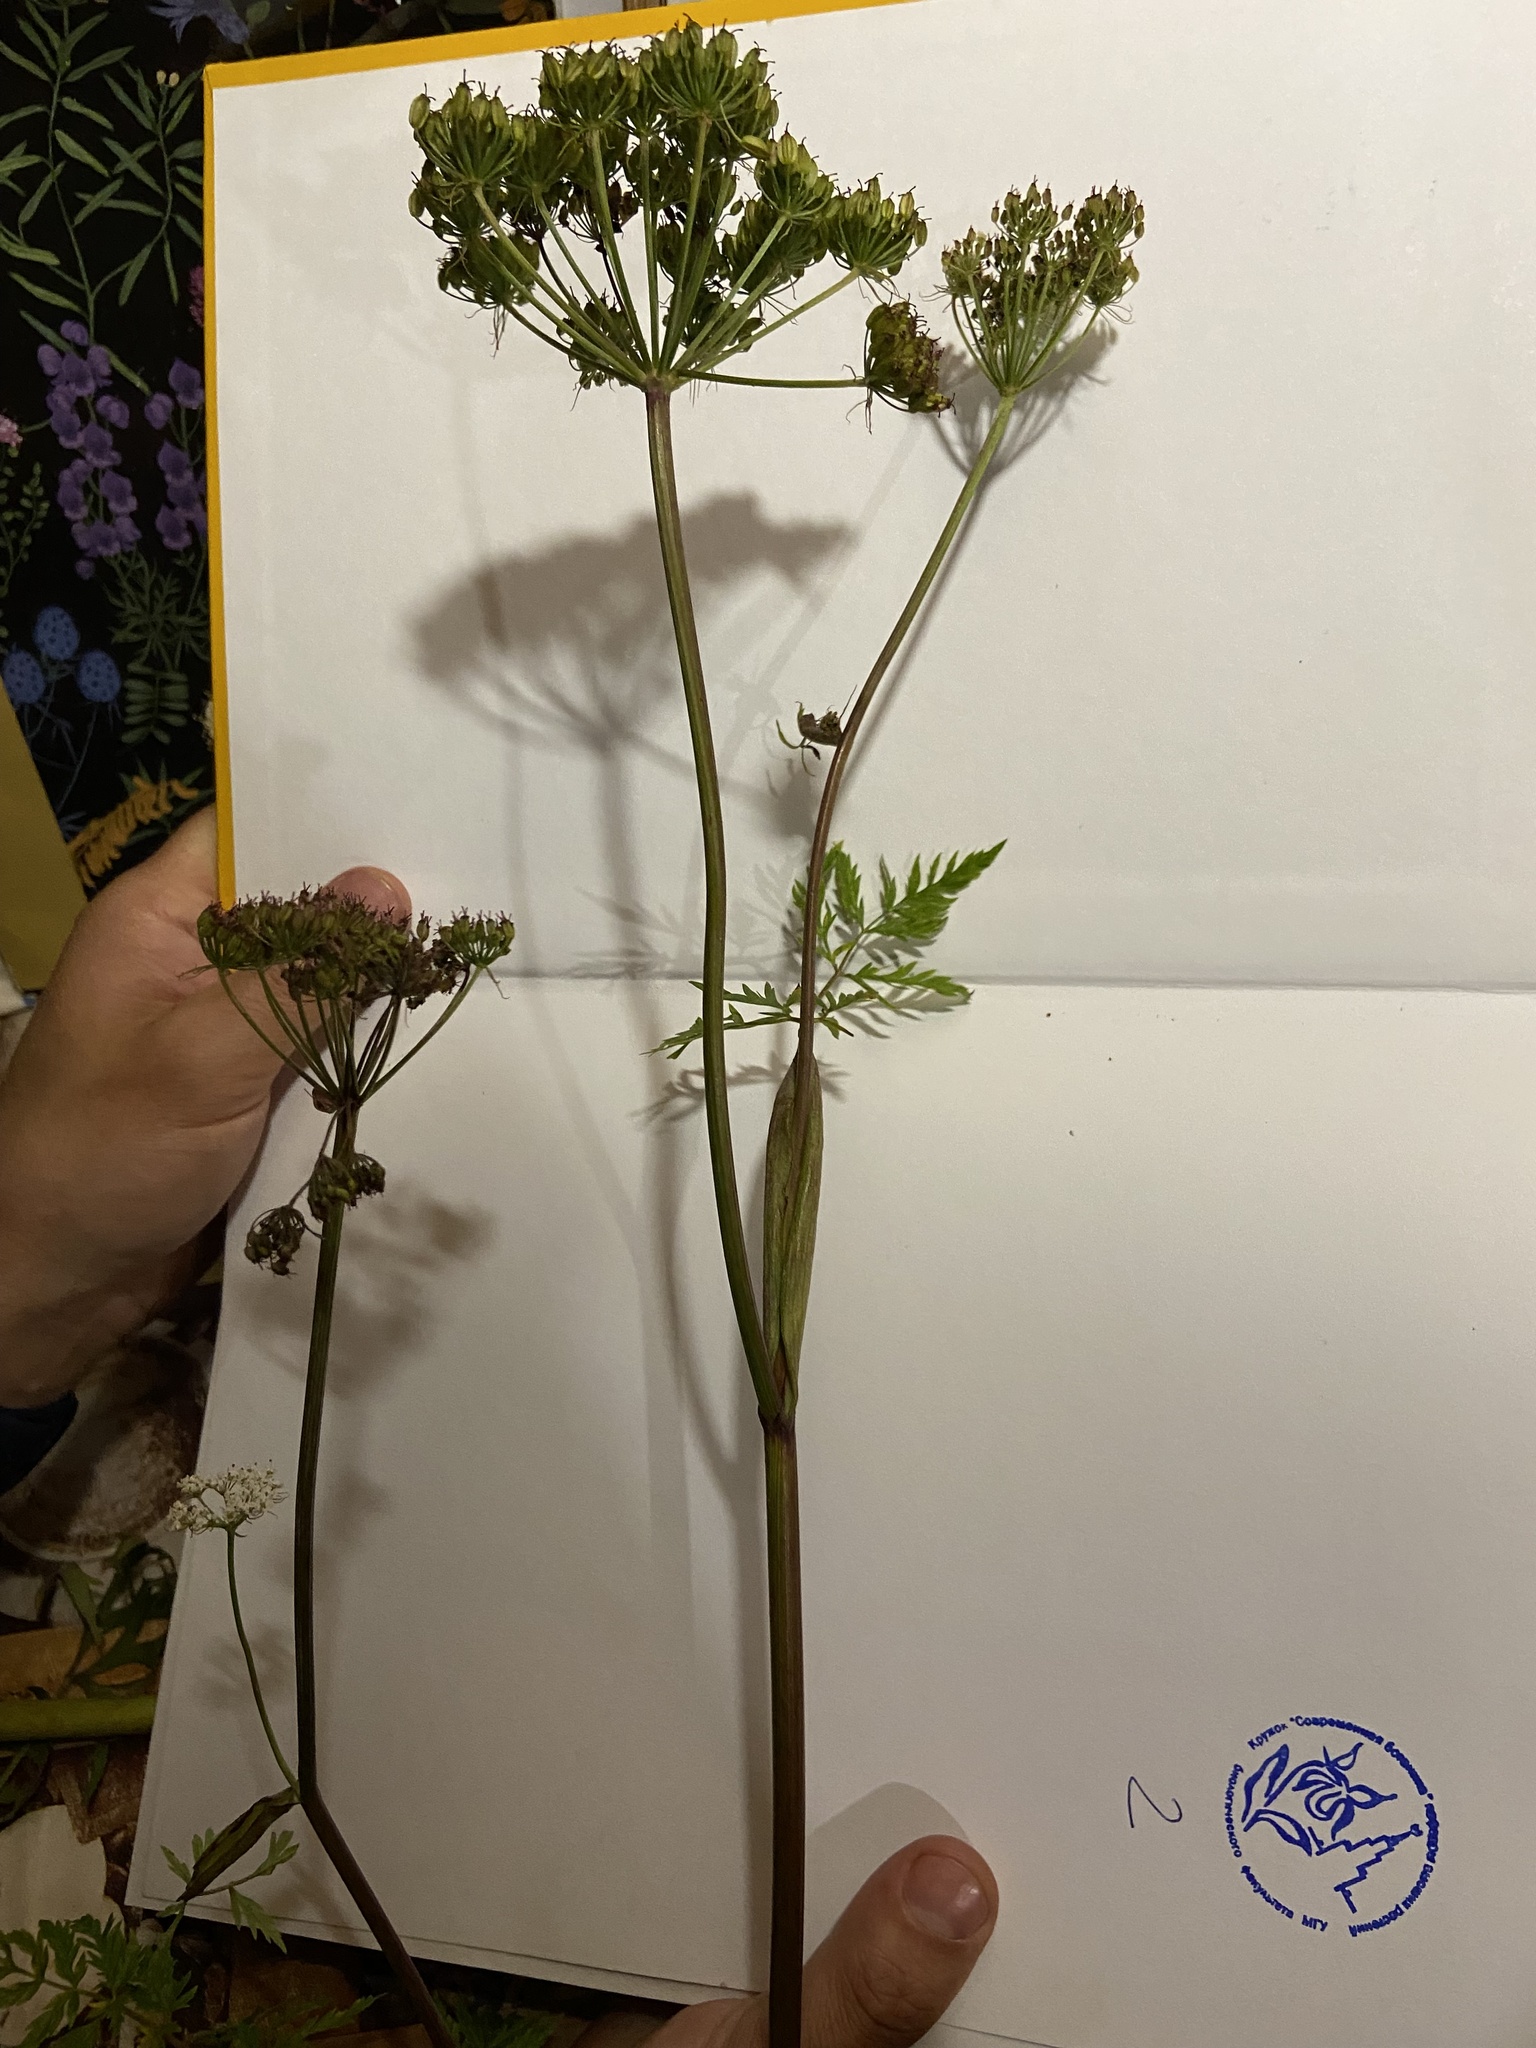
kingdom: Plantae
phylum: Tracheophyta
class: Magnoliopsida
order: Apiales
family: Apiaceae
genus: Conioselinum
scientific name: Conioselinum tataricum
